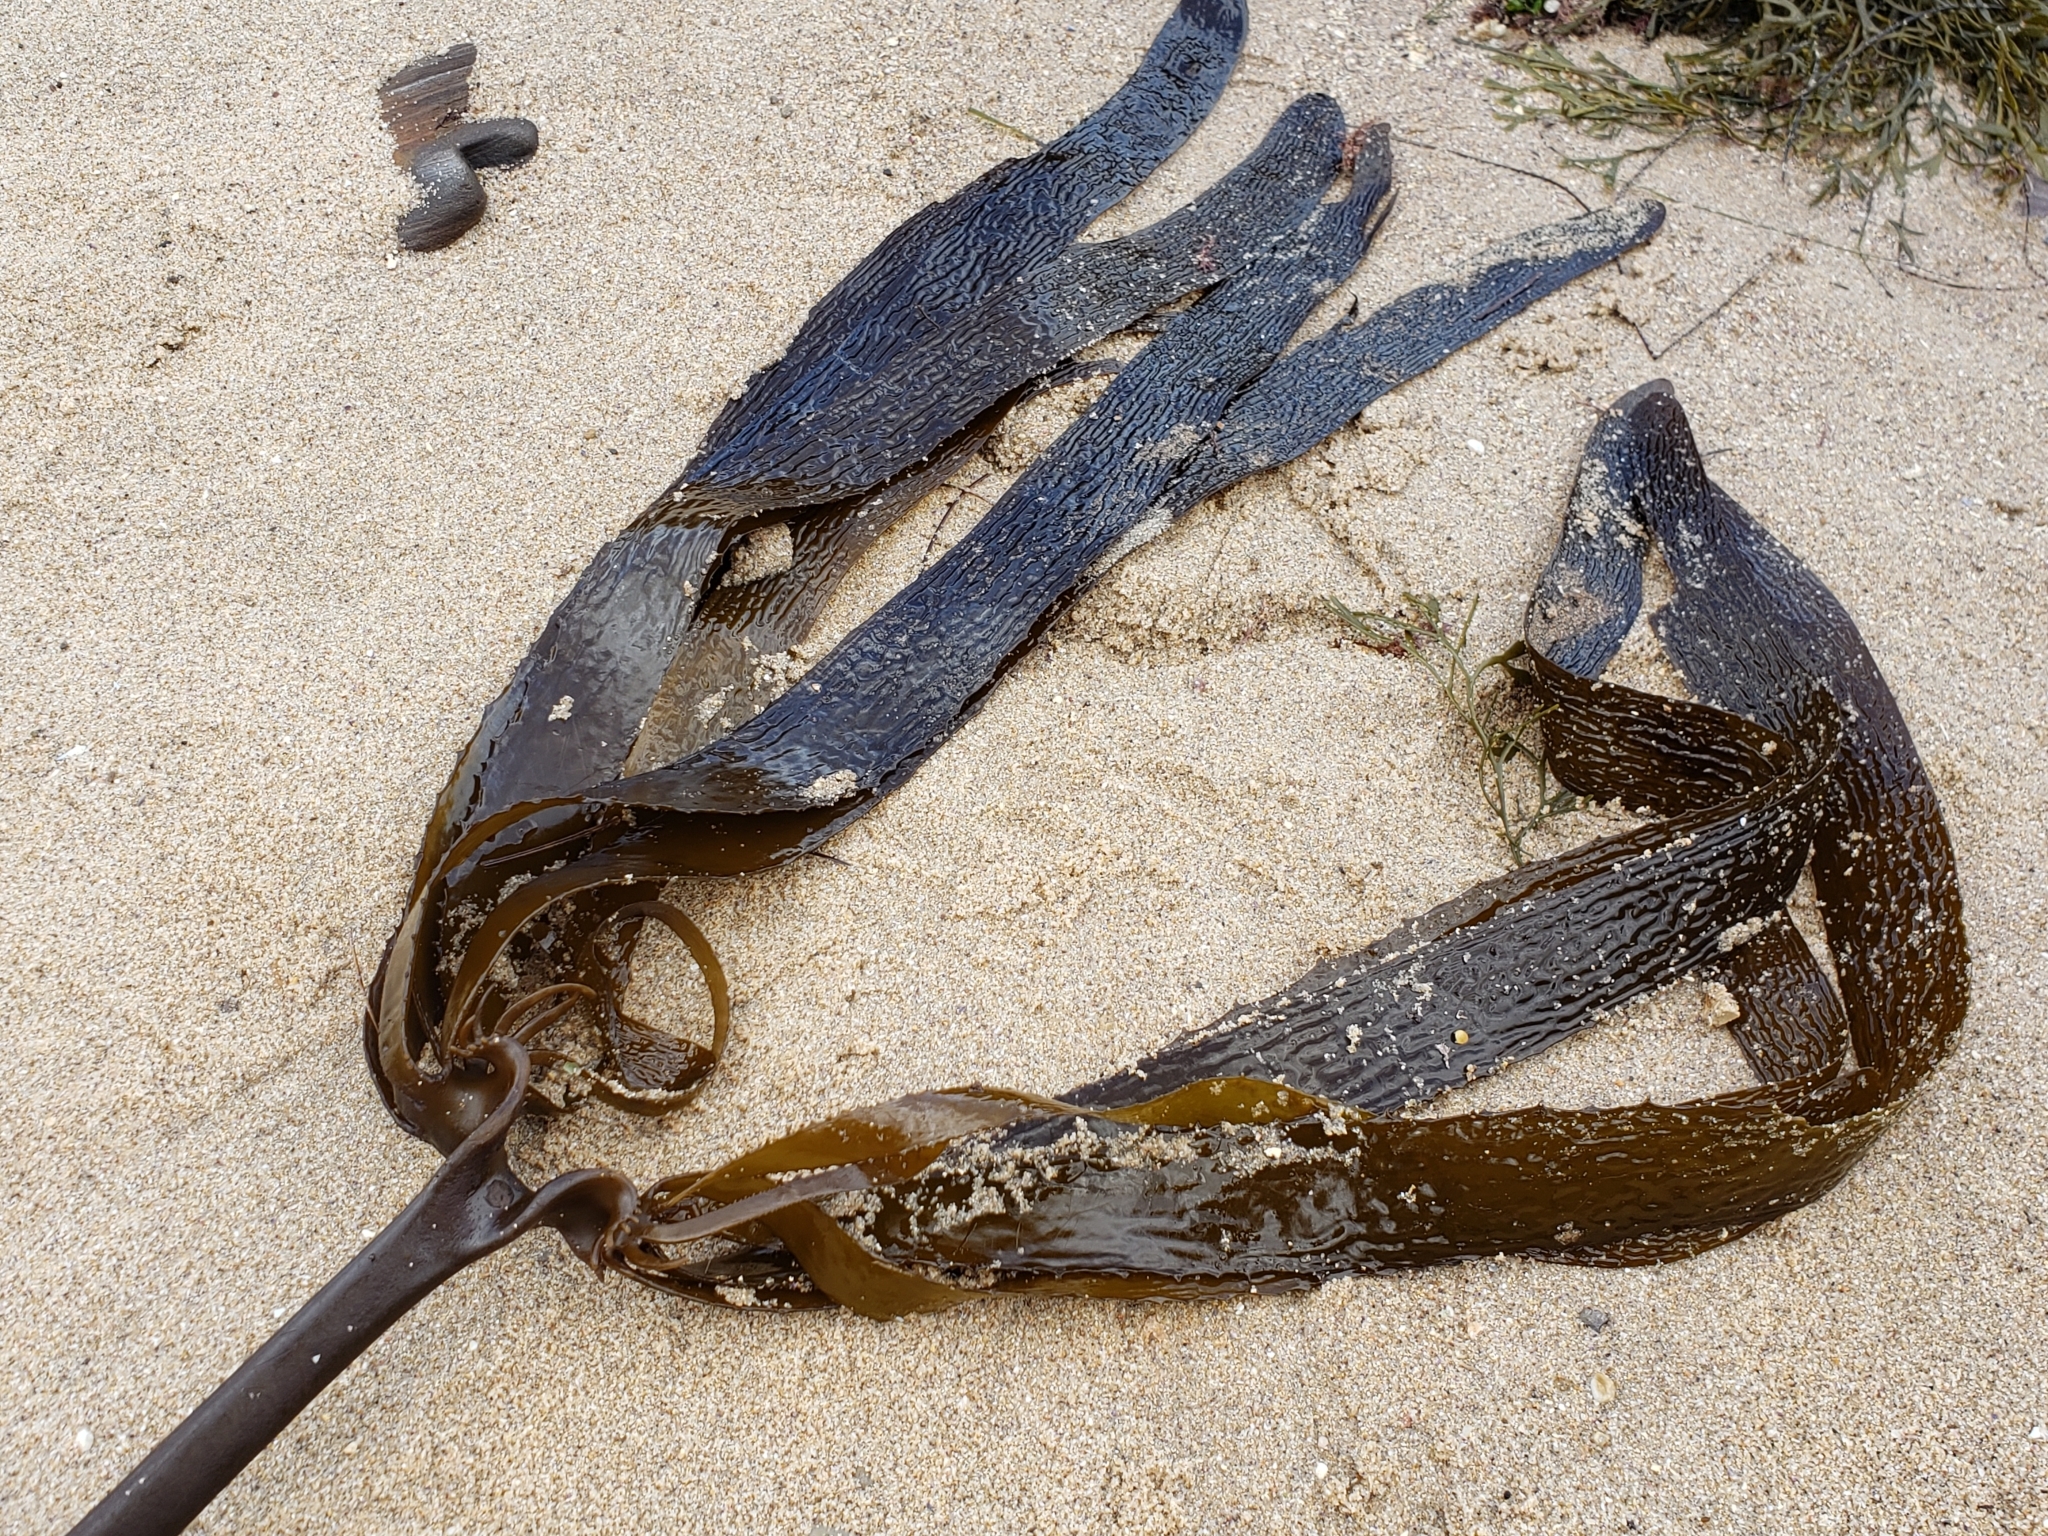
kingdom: Chromista
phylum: Ochrophyta
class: Phaeophyceae
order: Laminariales
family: Lessoniaceae
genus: Eisenia
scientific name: Eisenia arborea
